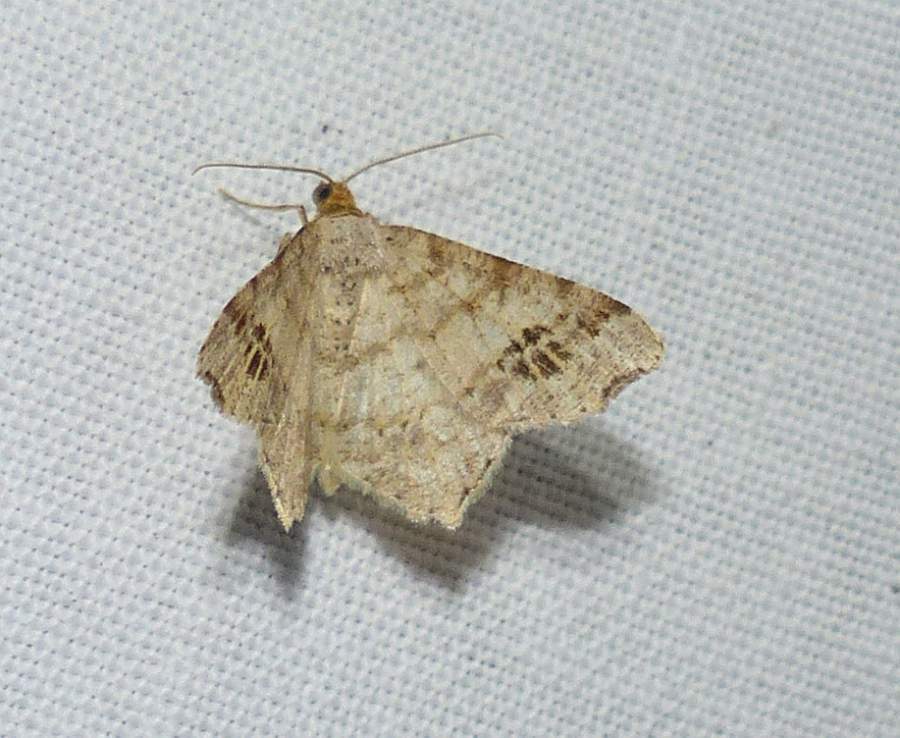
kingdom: Animalia
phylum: Arthropoda
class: Insecta
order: Lepidoptera
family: Geometridae
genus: Macaria
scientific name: Macaria aemulataria
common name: Common angle
